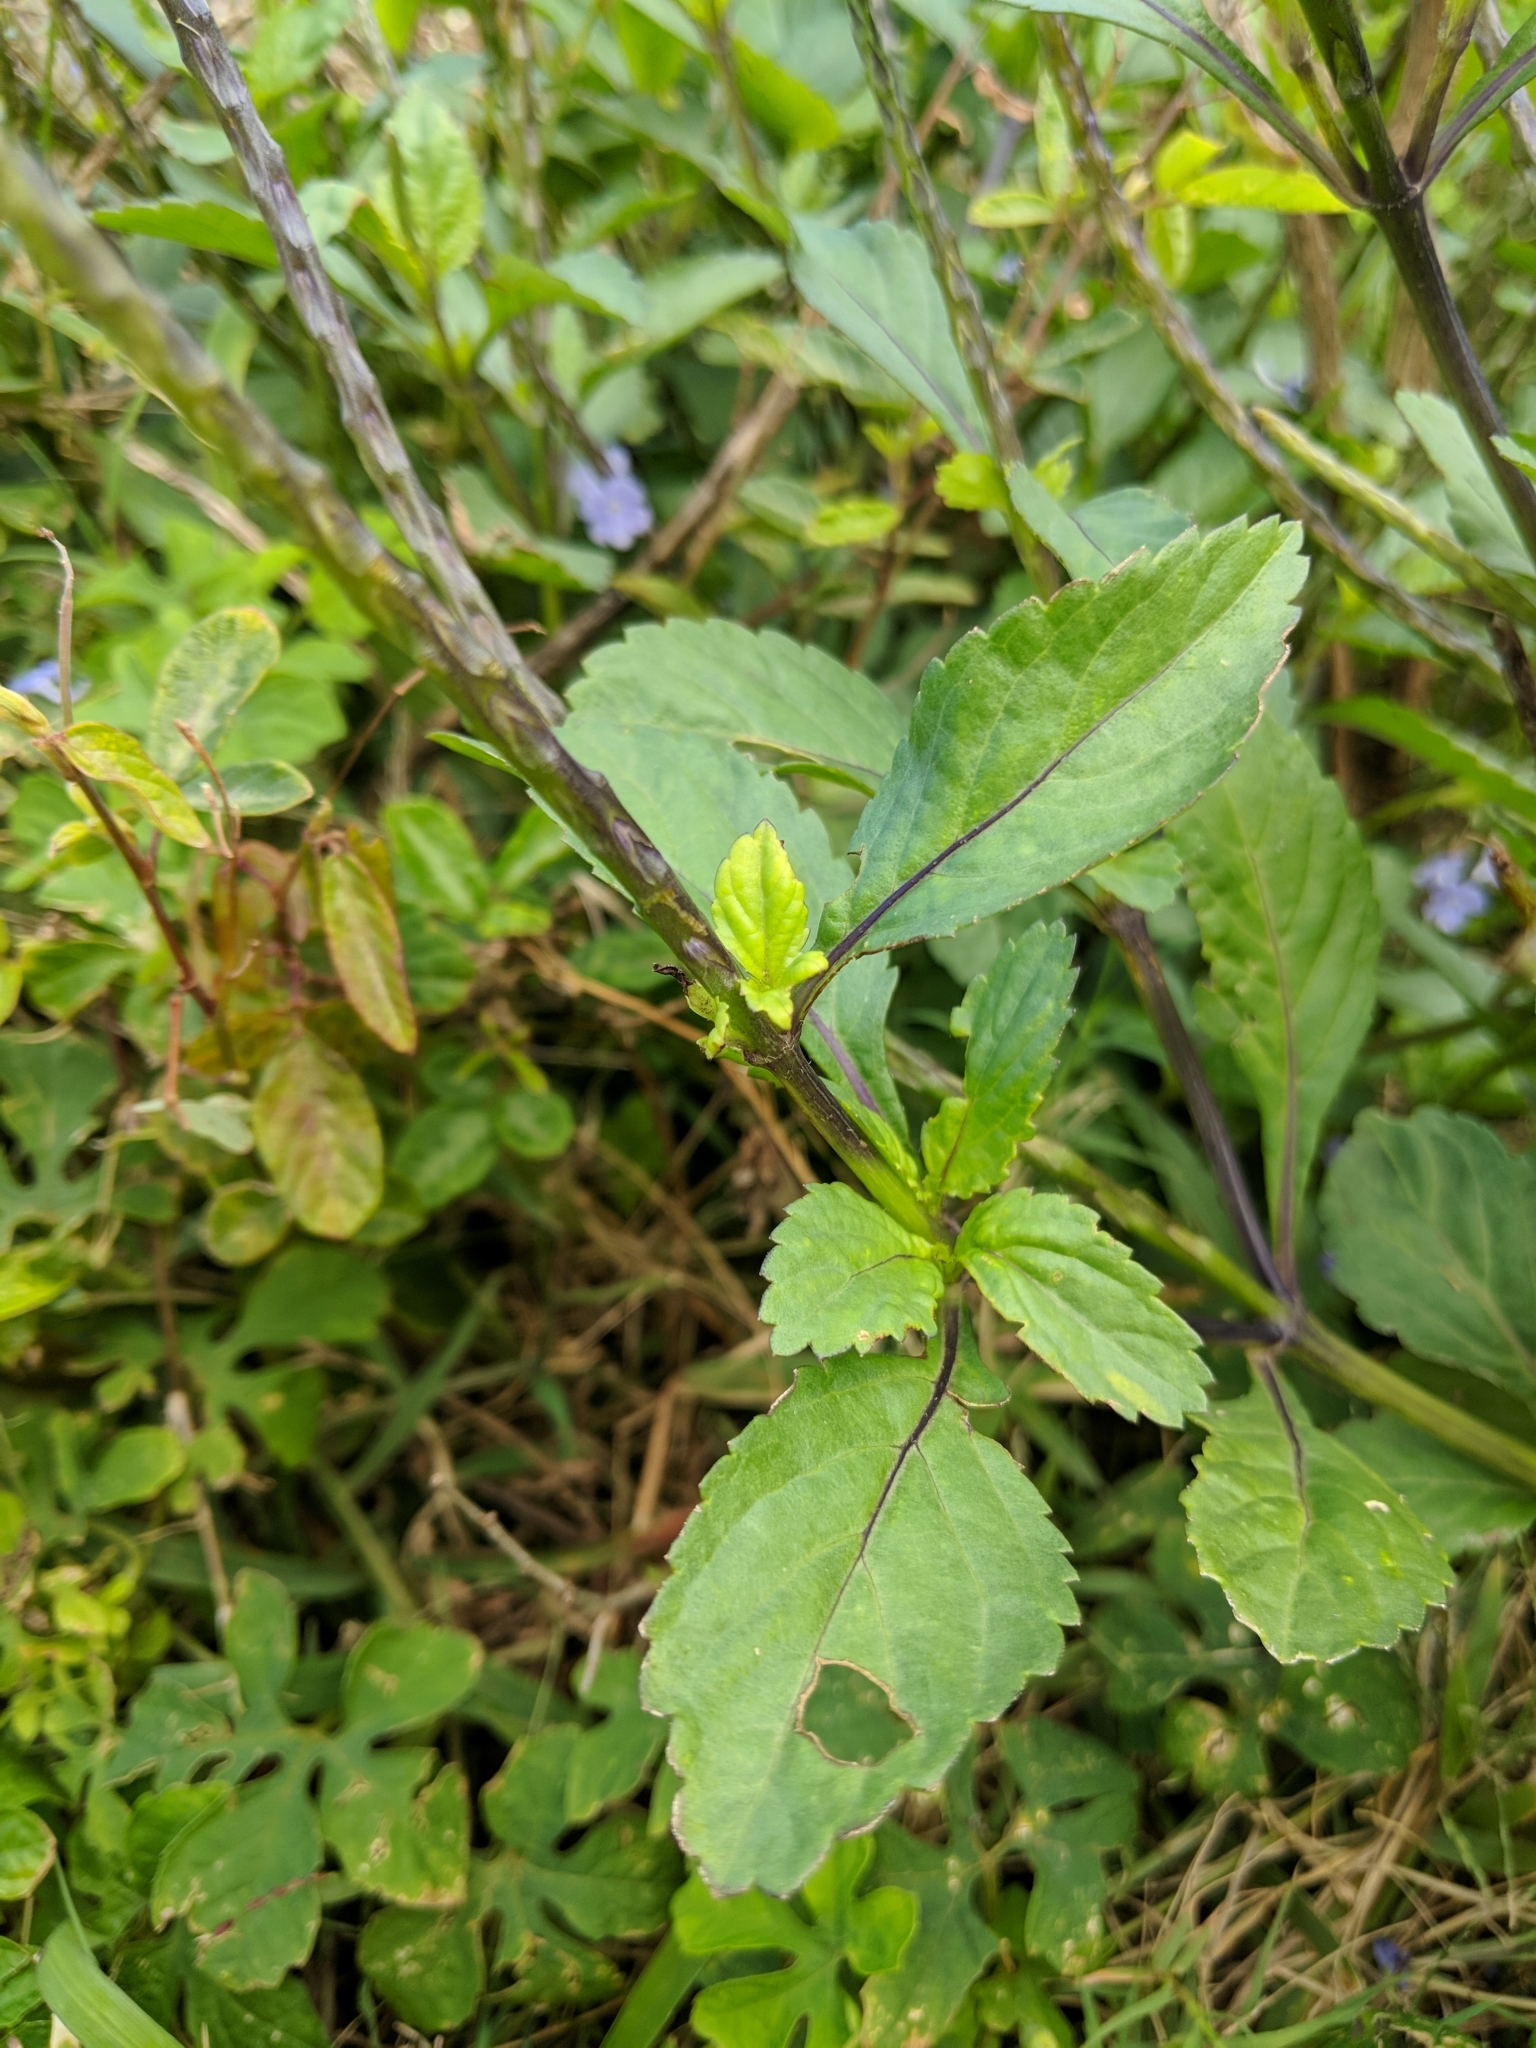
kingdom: Plantae
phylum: Tracheophyta
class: Magnoliopsida
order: Lamiales
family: Verbenaceae
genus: Stachytarpheta
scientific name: Stachytarpheta jamaicensis
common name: Light-blue snakeweed
